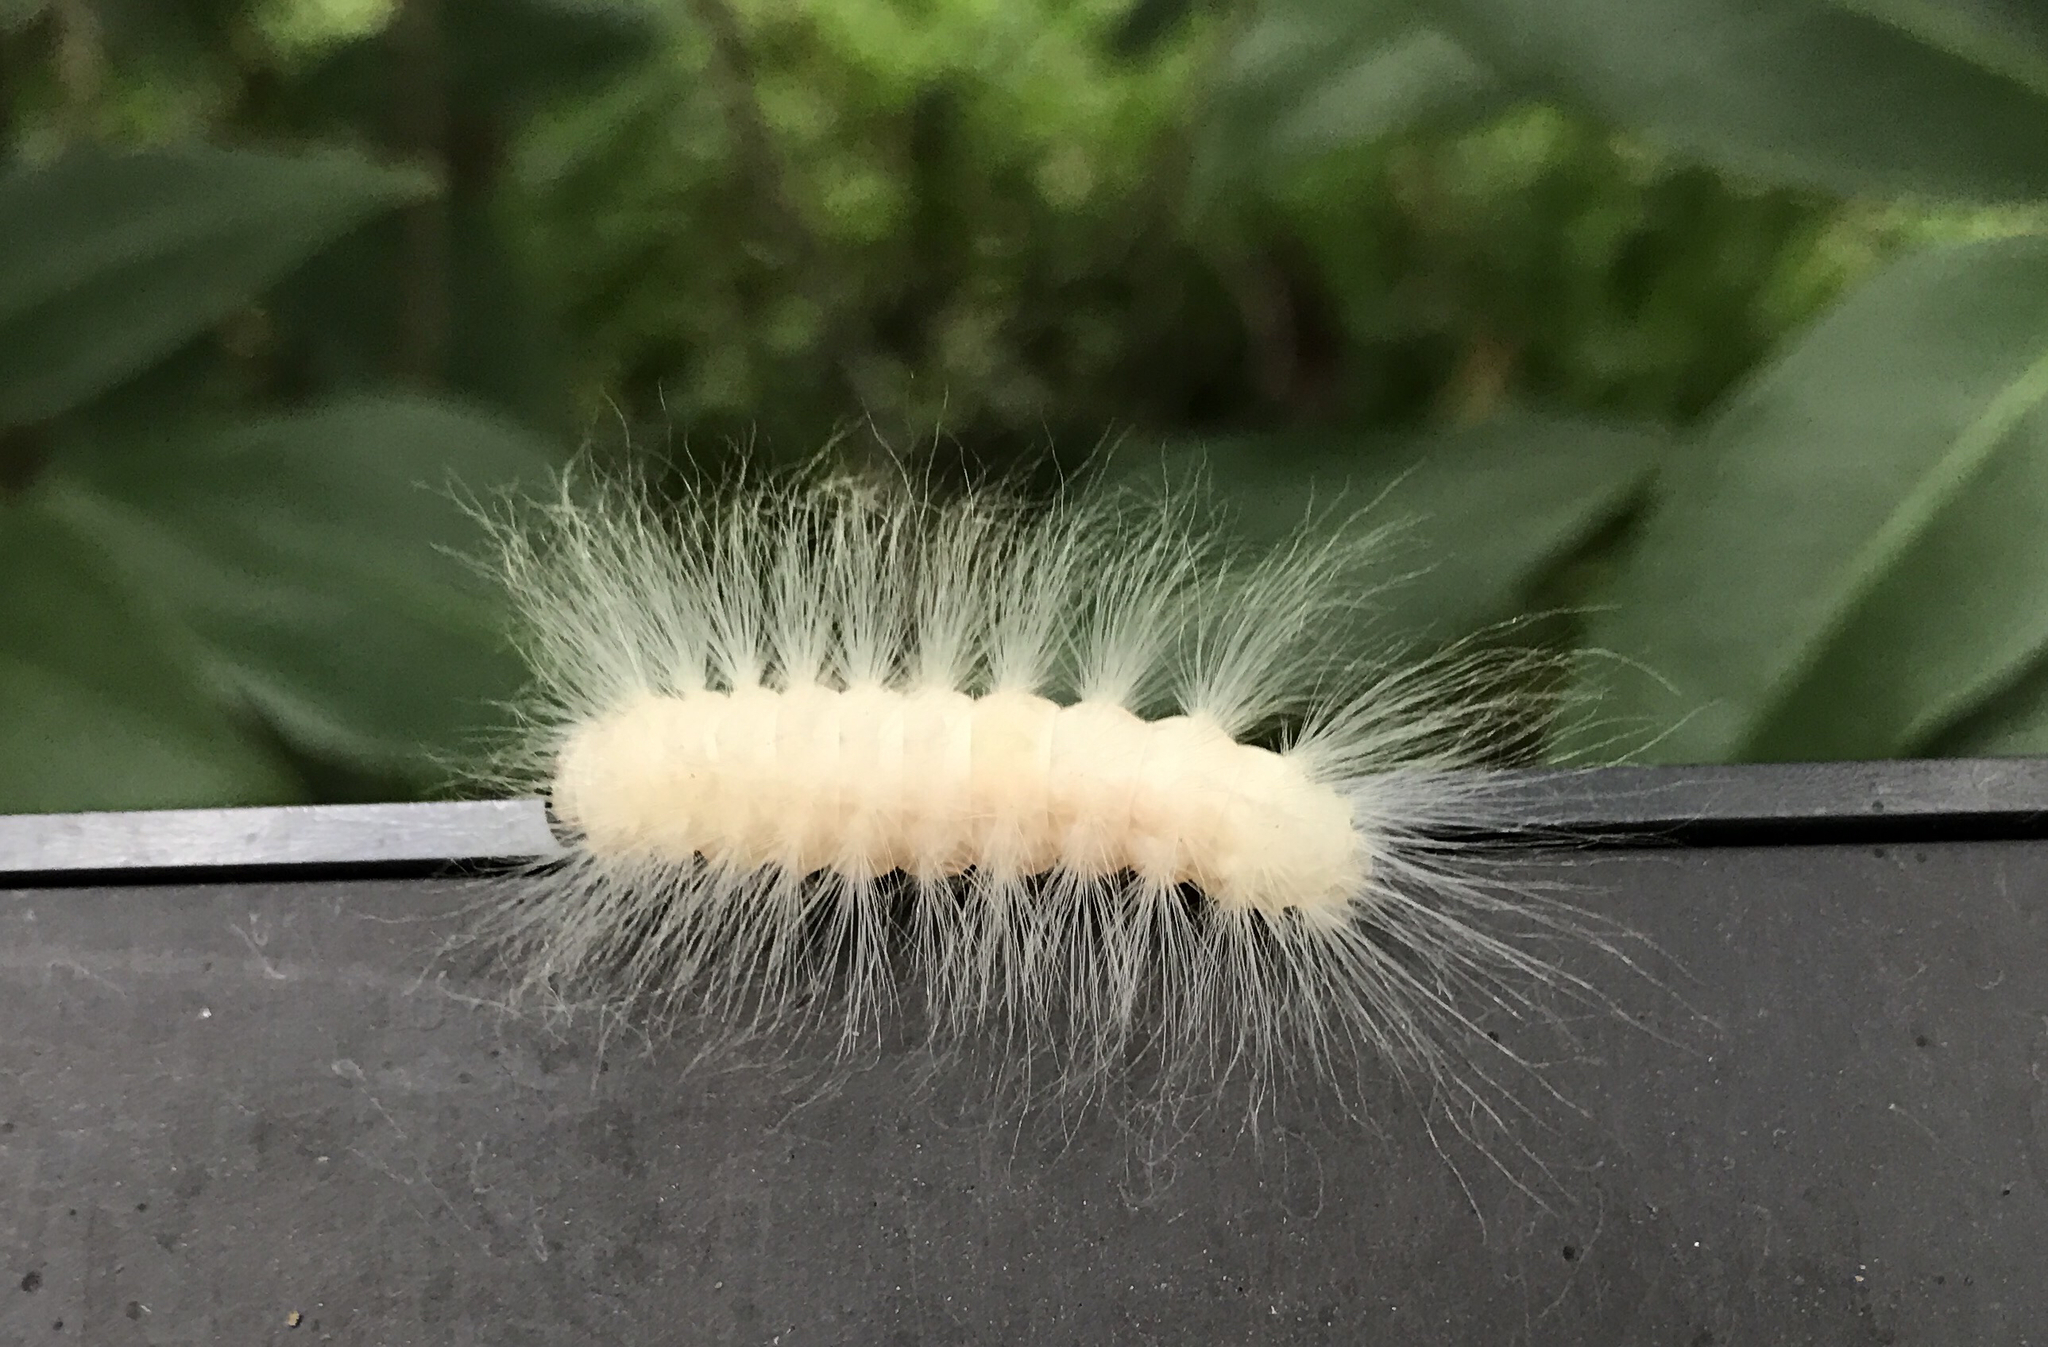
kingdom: Animalia
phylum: Arthropoda
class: Insecta
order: Lepidoptera
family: Noctuidae
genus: Charadra
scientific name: Charadra deridens
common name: Marbled tuffet
